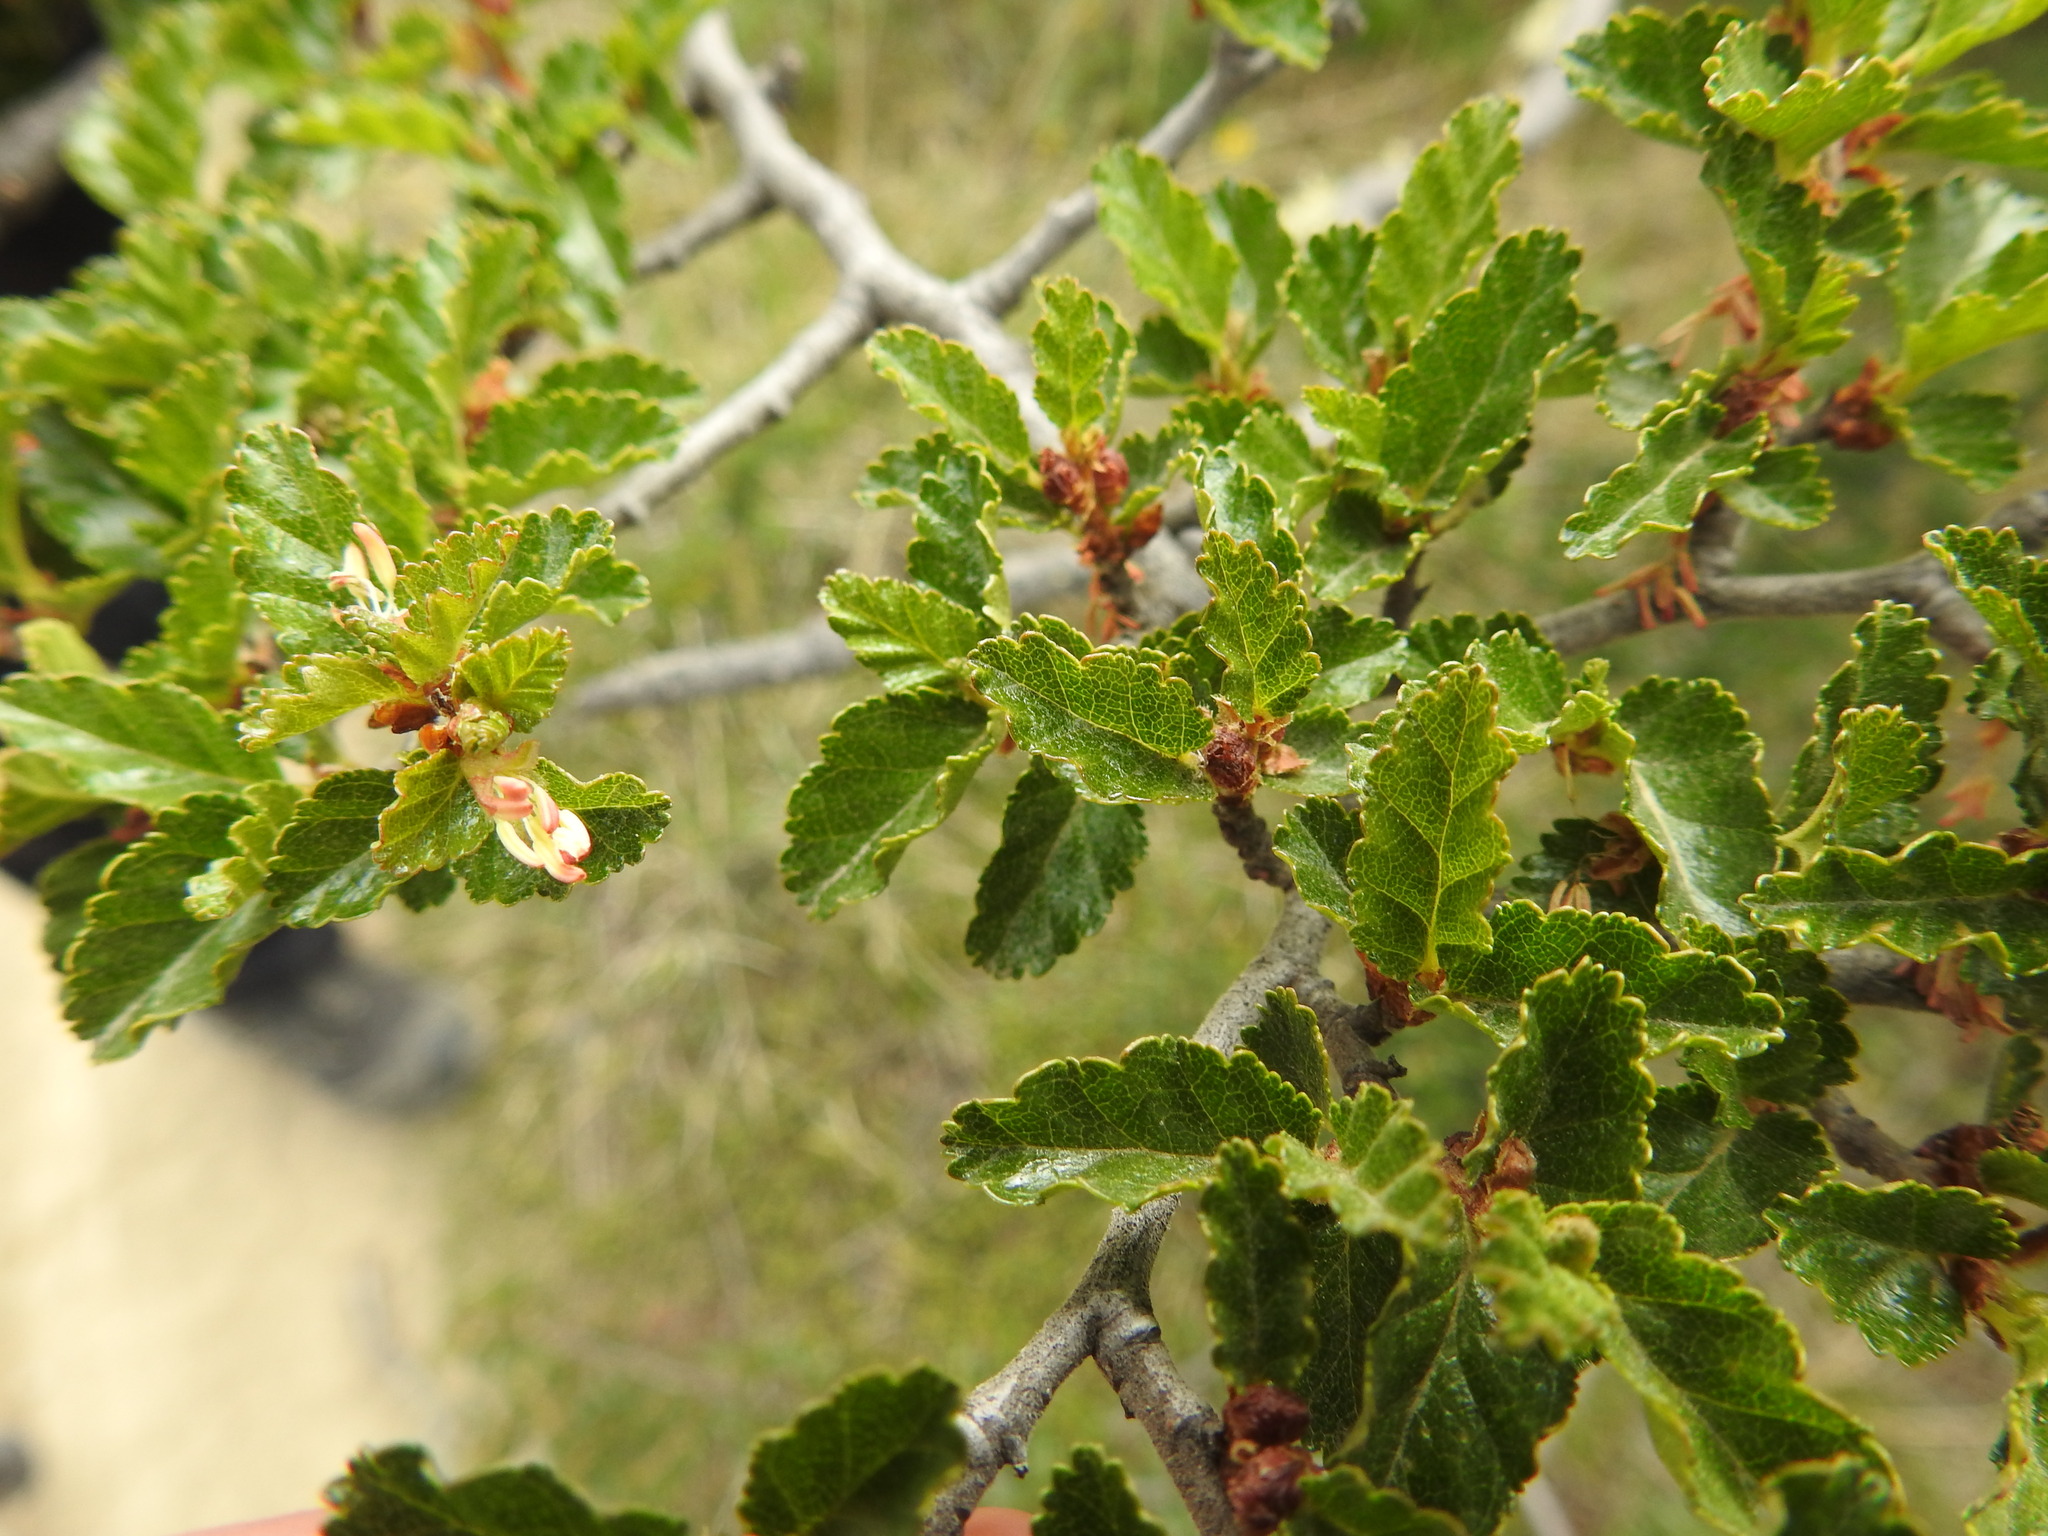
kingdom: Plantae
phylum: Tracheophyta
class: Magnoliopsida
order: Fagales
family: Nothofagaceae
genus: Nothofagus
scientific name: Nothofagus antarctica
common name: Antarctic beech
